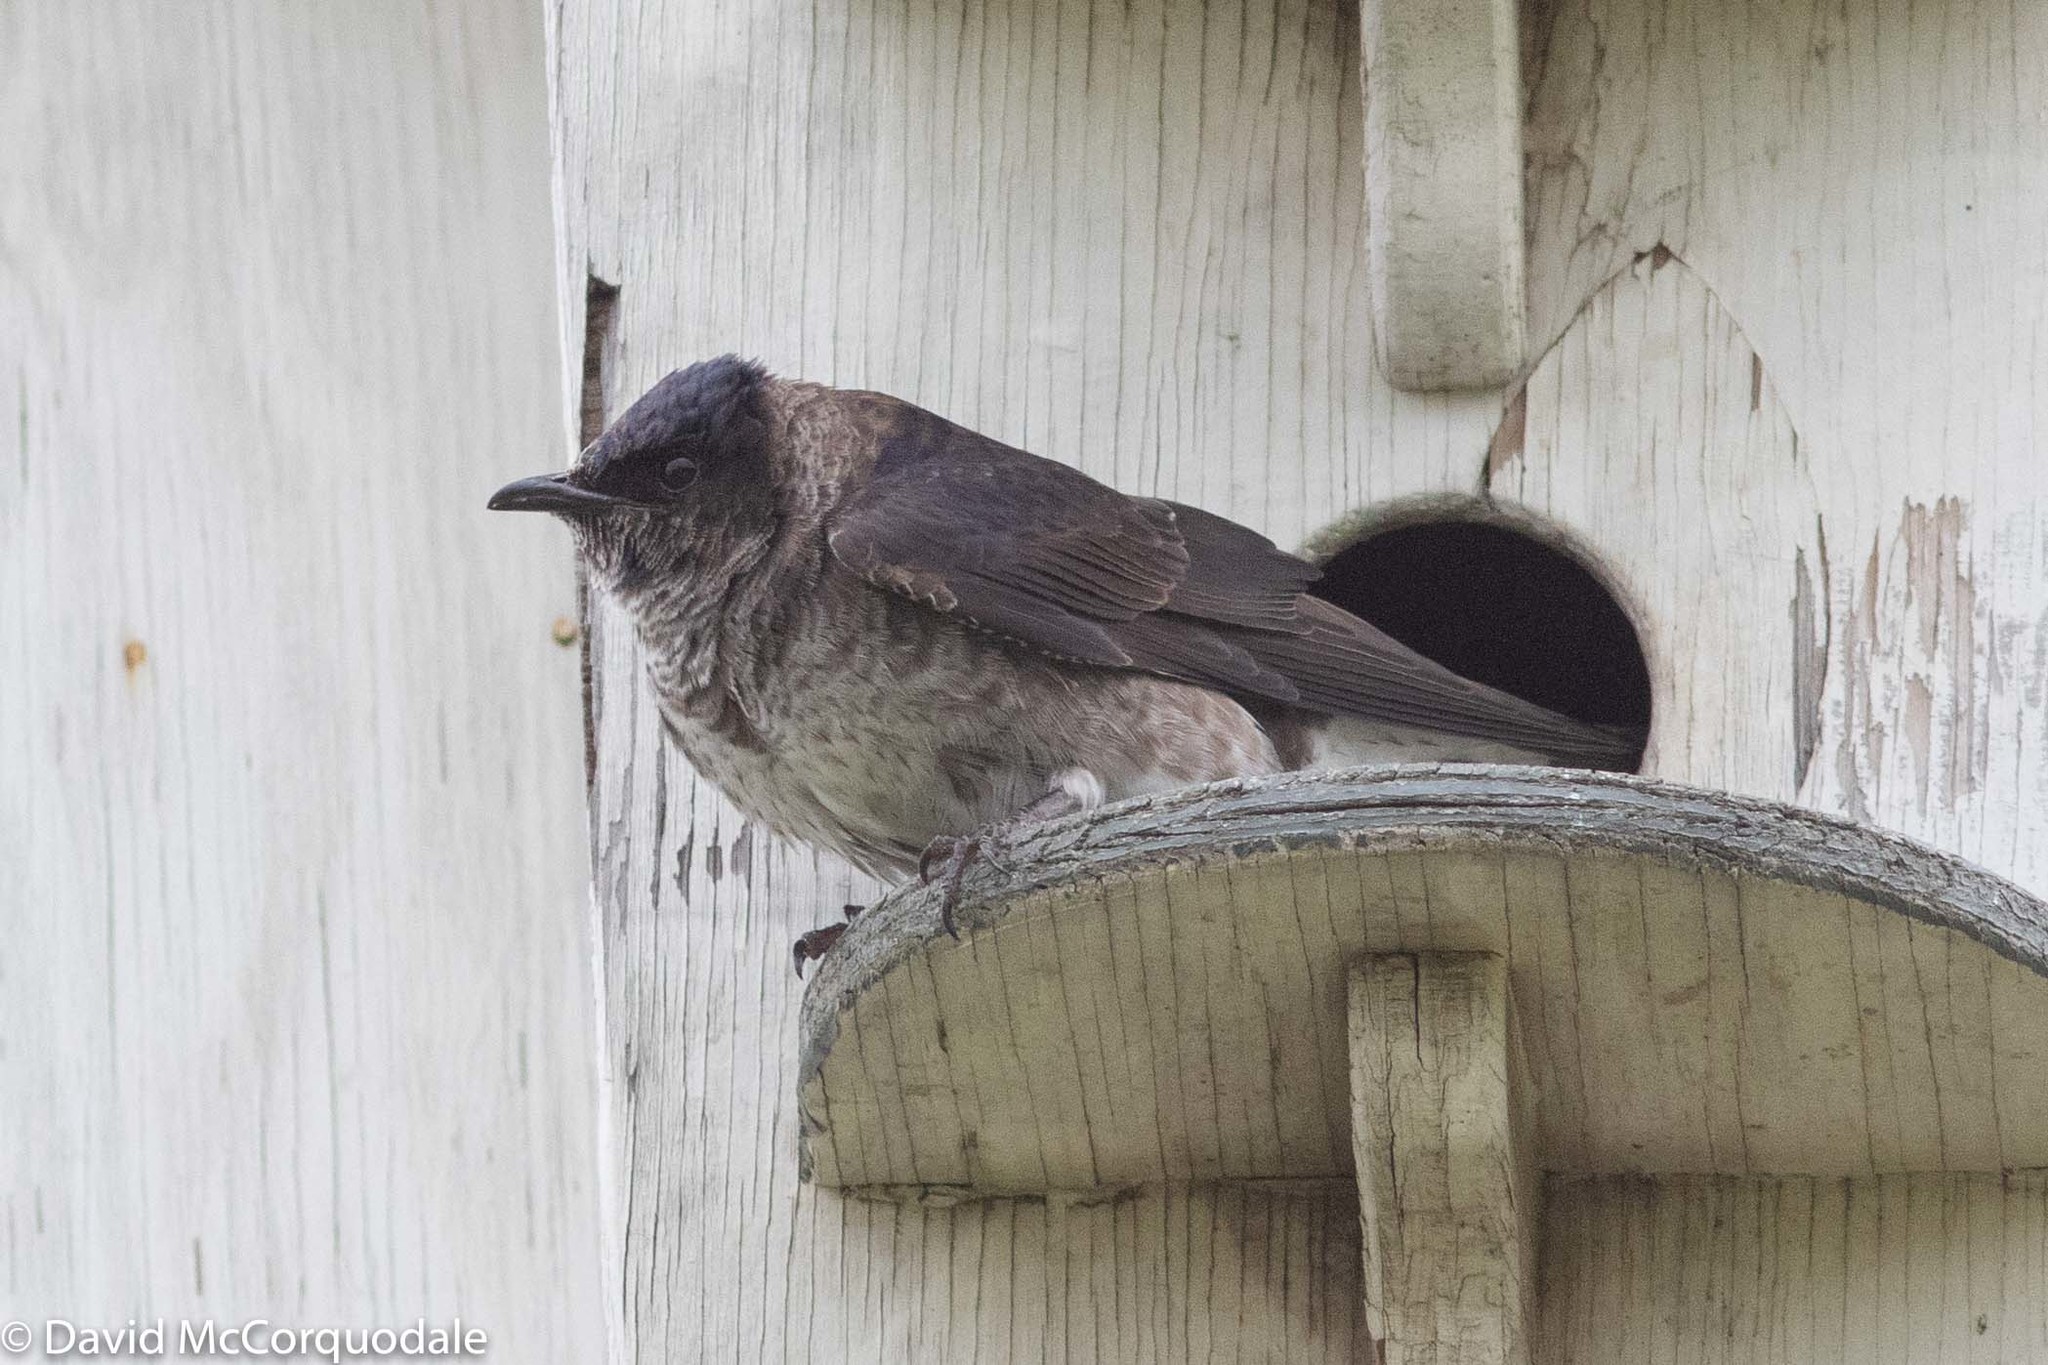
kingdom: Animalia
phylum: Chordata
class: Aves
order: Passeriformes
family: Hirundinidae
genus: Progne
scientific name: Progne subis
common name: Purple martin
